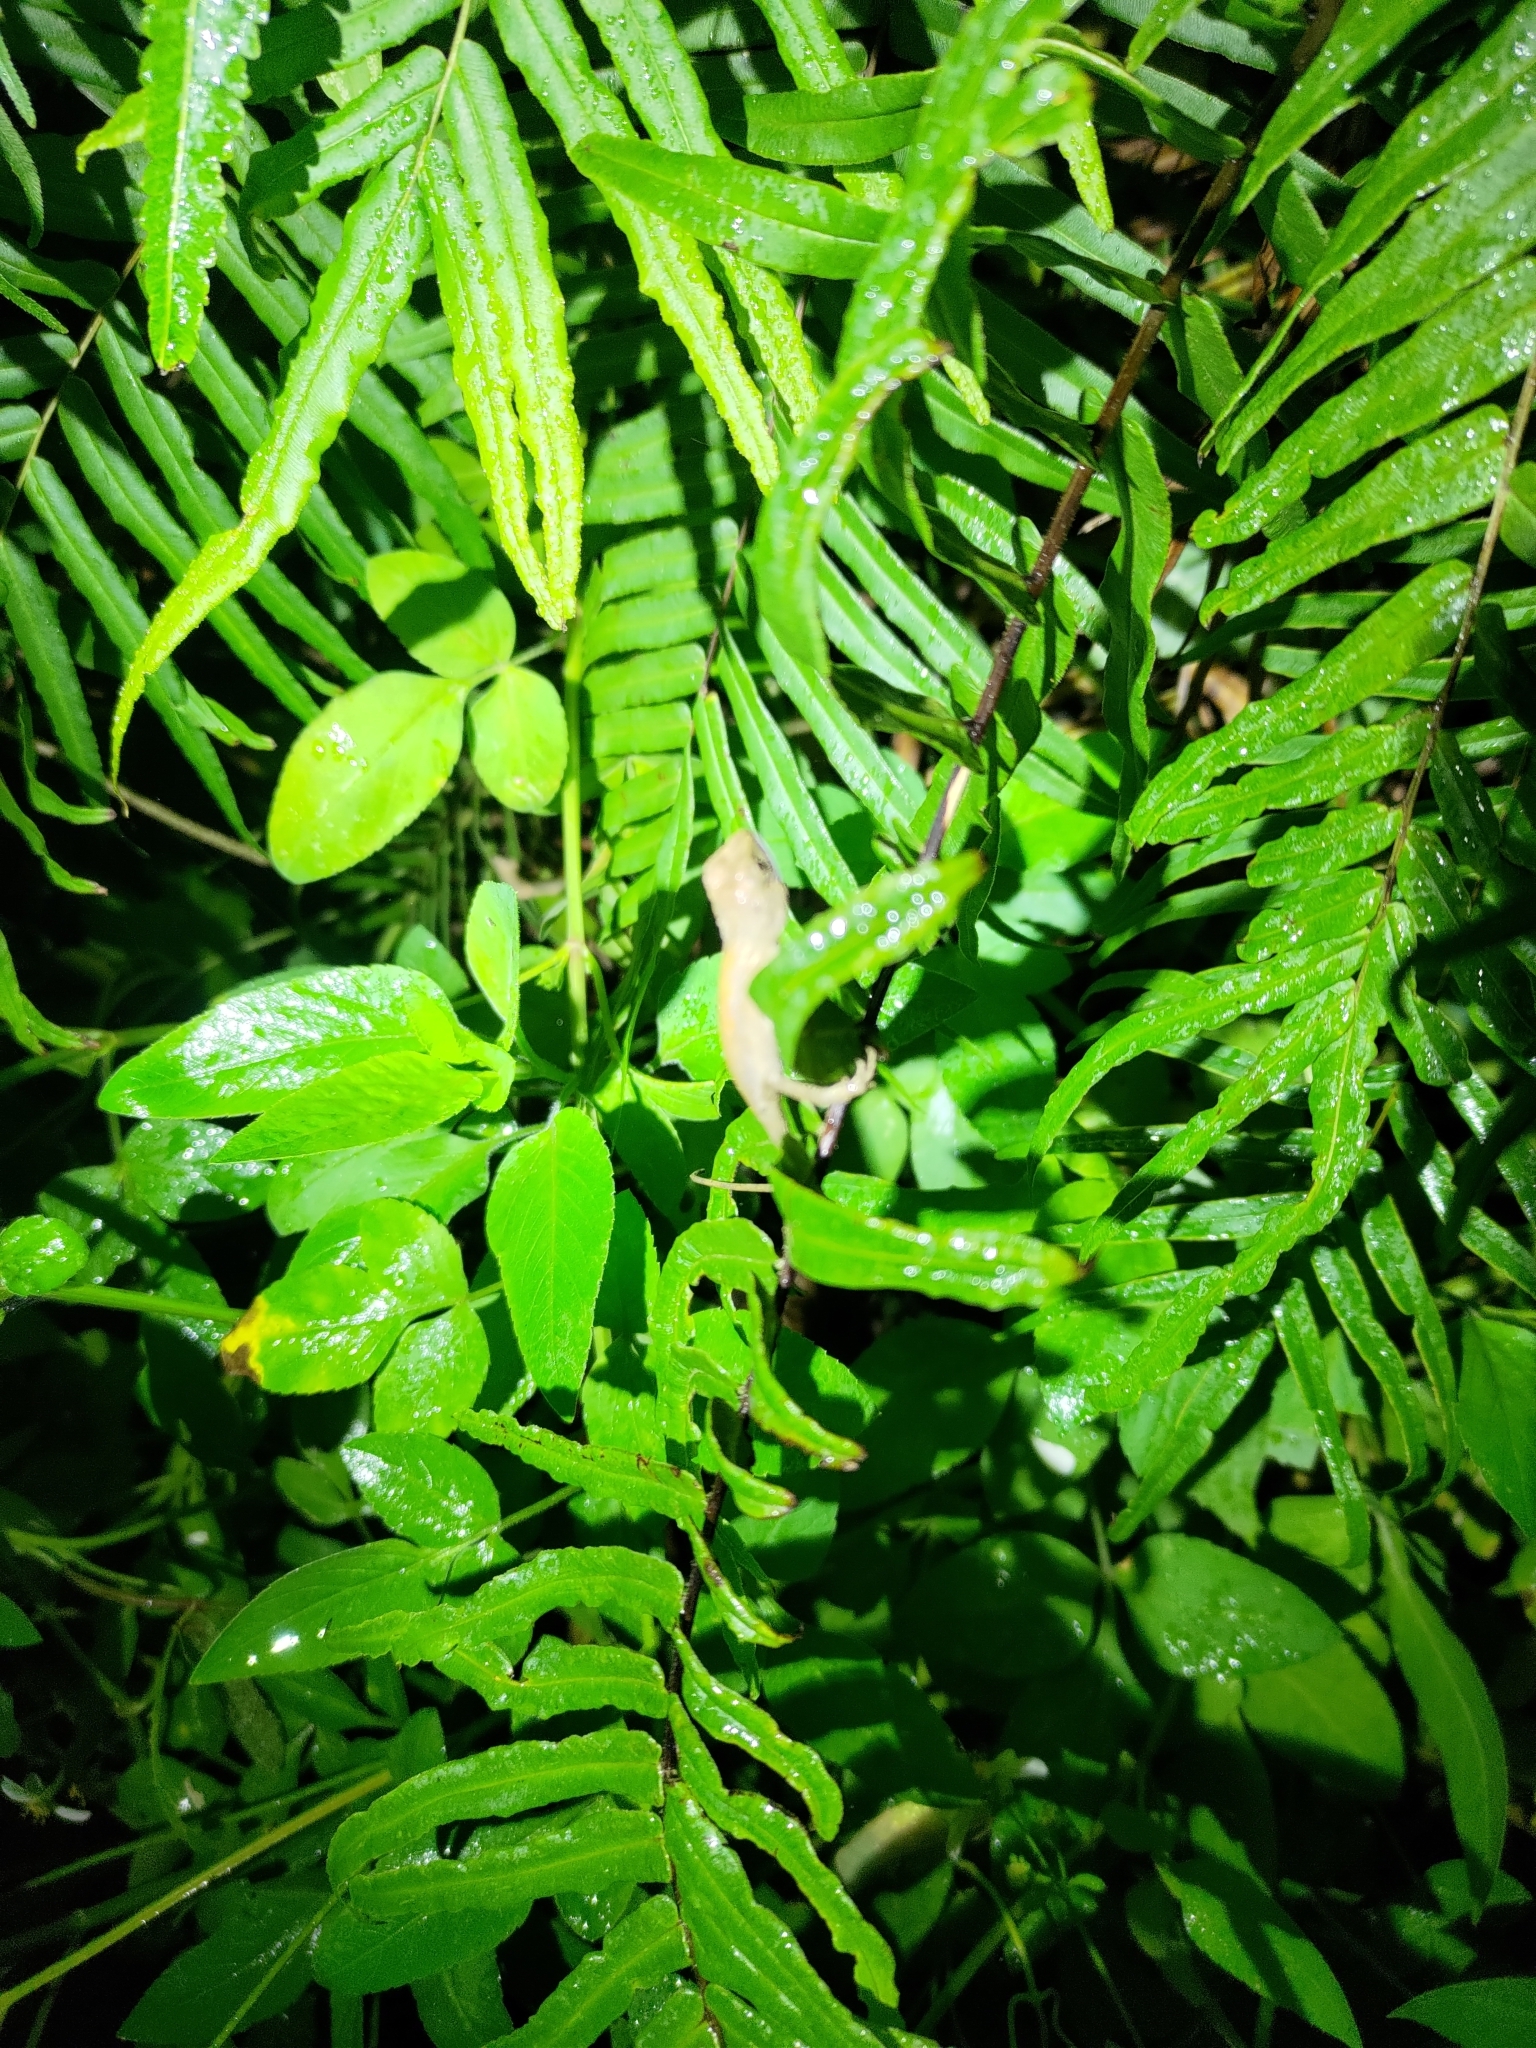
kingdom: Animalia
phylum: Chordata
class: Squamata
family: Agamidae
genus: Diploderma
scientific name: Diploderma swinhonis
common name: Taiwan japalure
